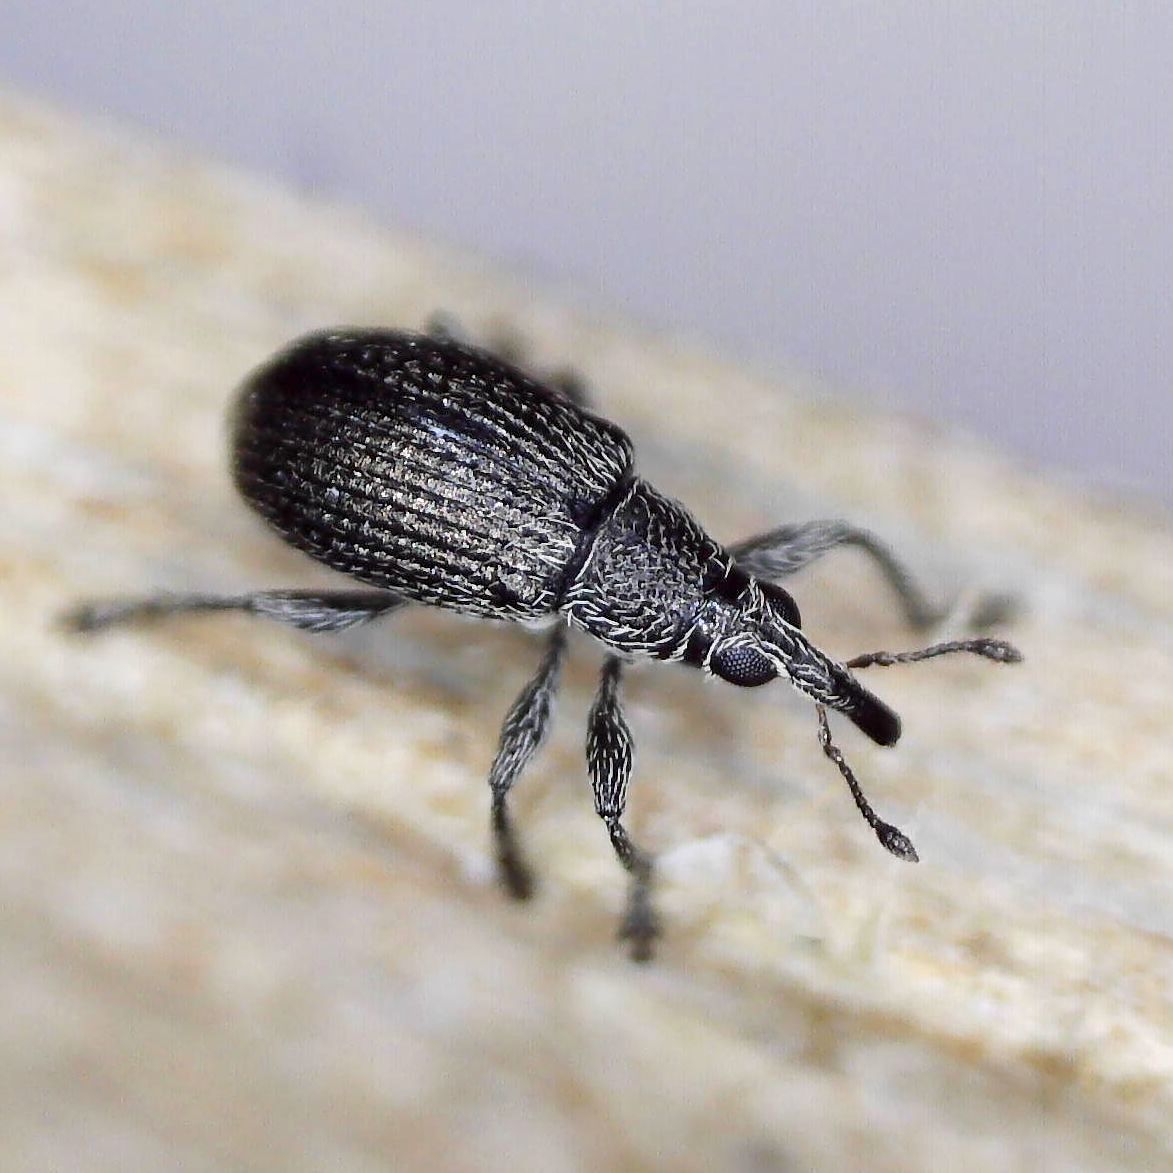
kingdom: Animalia
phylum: Arthropoda
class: Insecta
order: Coleoptera
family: Brentidae
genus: Betulapion
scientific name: Betulapion simile
